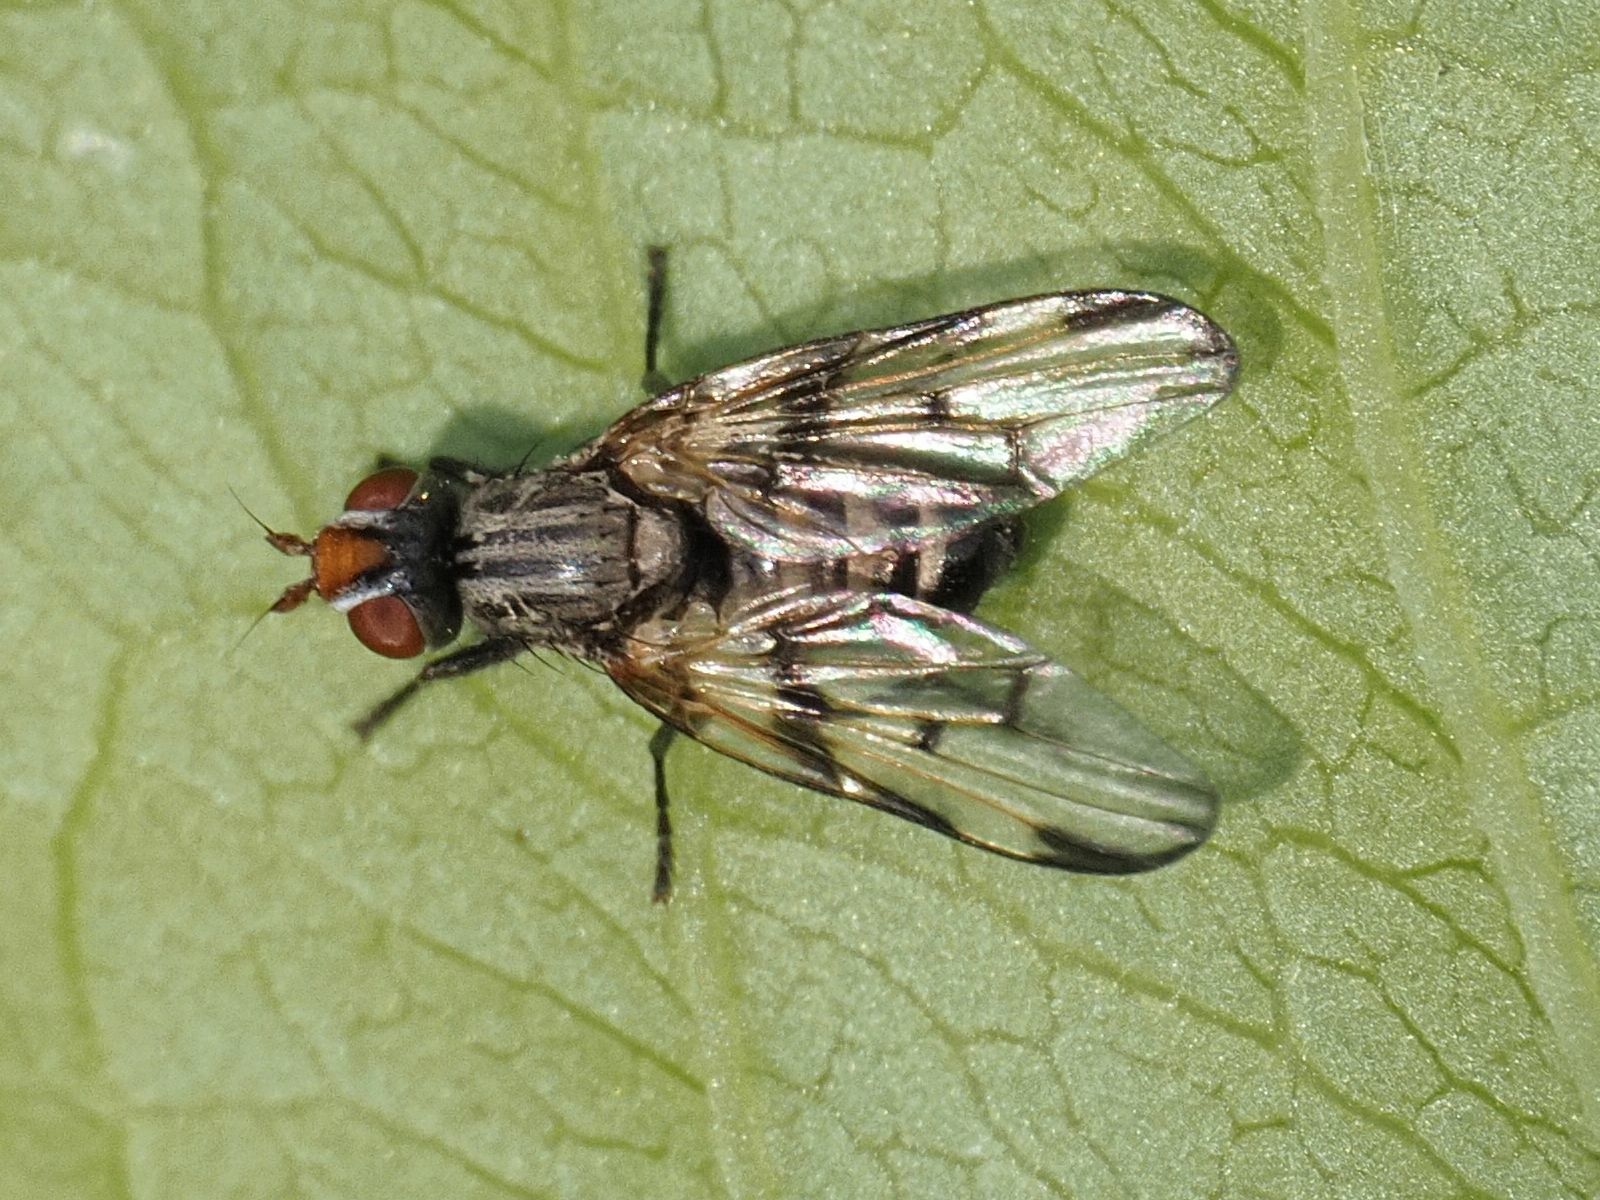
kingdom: Animalia
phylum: Arthropoda
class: Insecta
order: Diptera
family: Ulidiidae
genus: Otites
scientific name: Otites formosa
